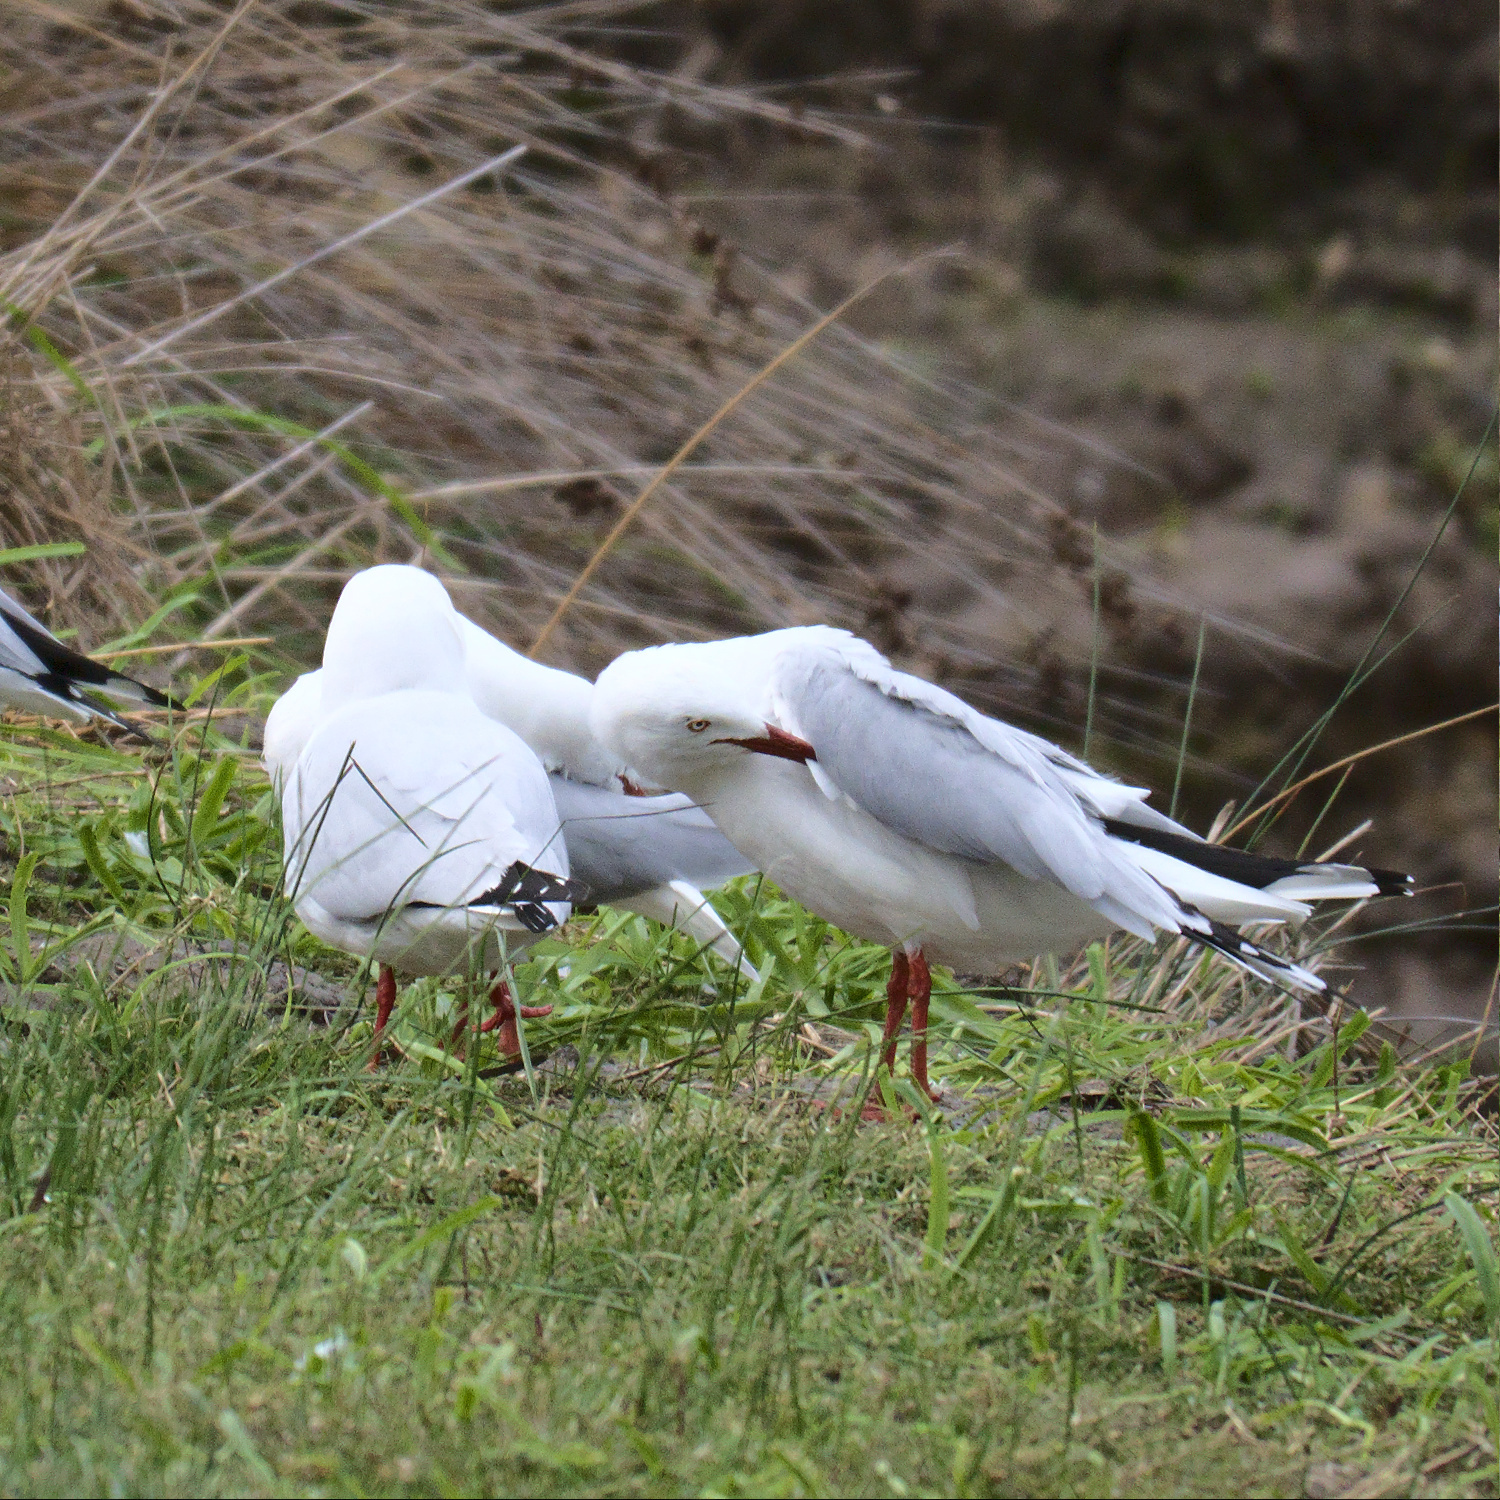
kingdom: Animalia
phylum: Chordata
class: Aves
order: Charadriiformes
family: Laridae
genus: Chroicocephalus
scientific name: Chroicocephalus novaehollandiae
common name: Silver gull
